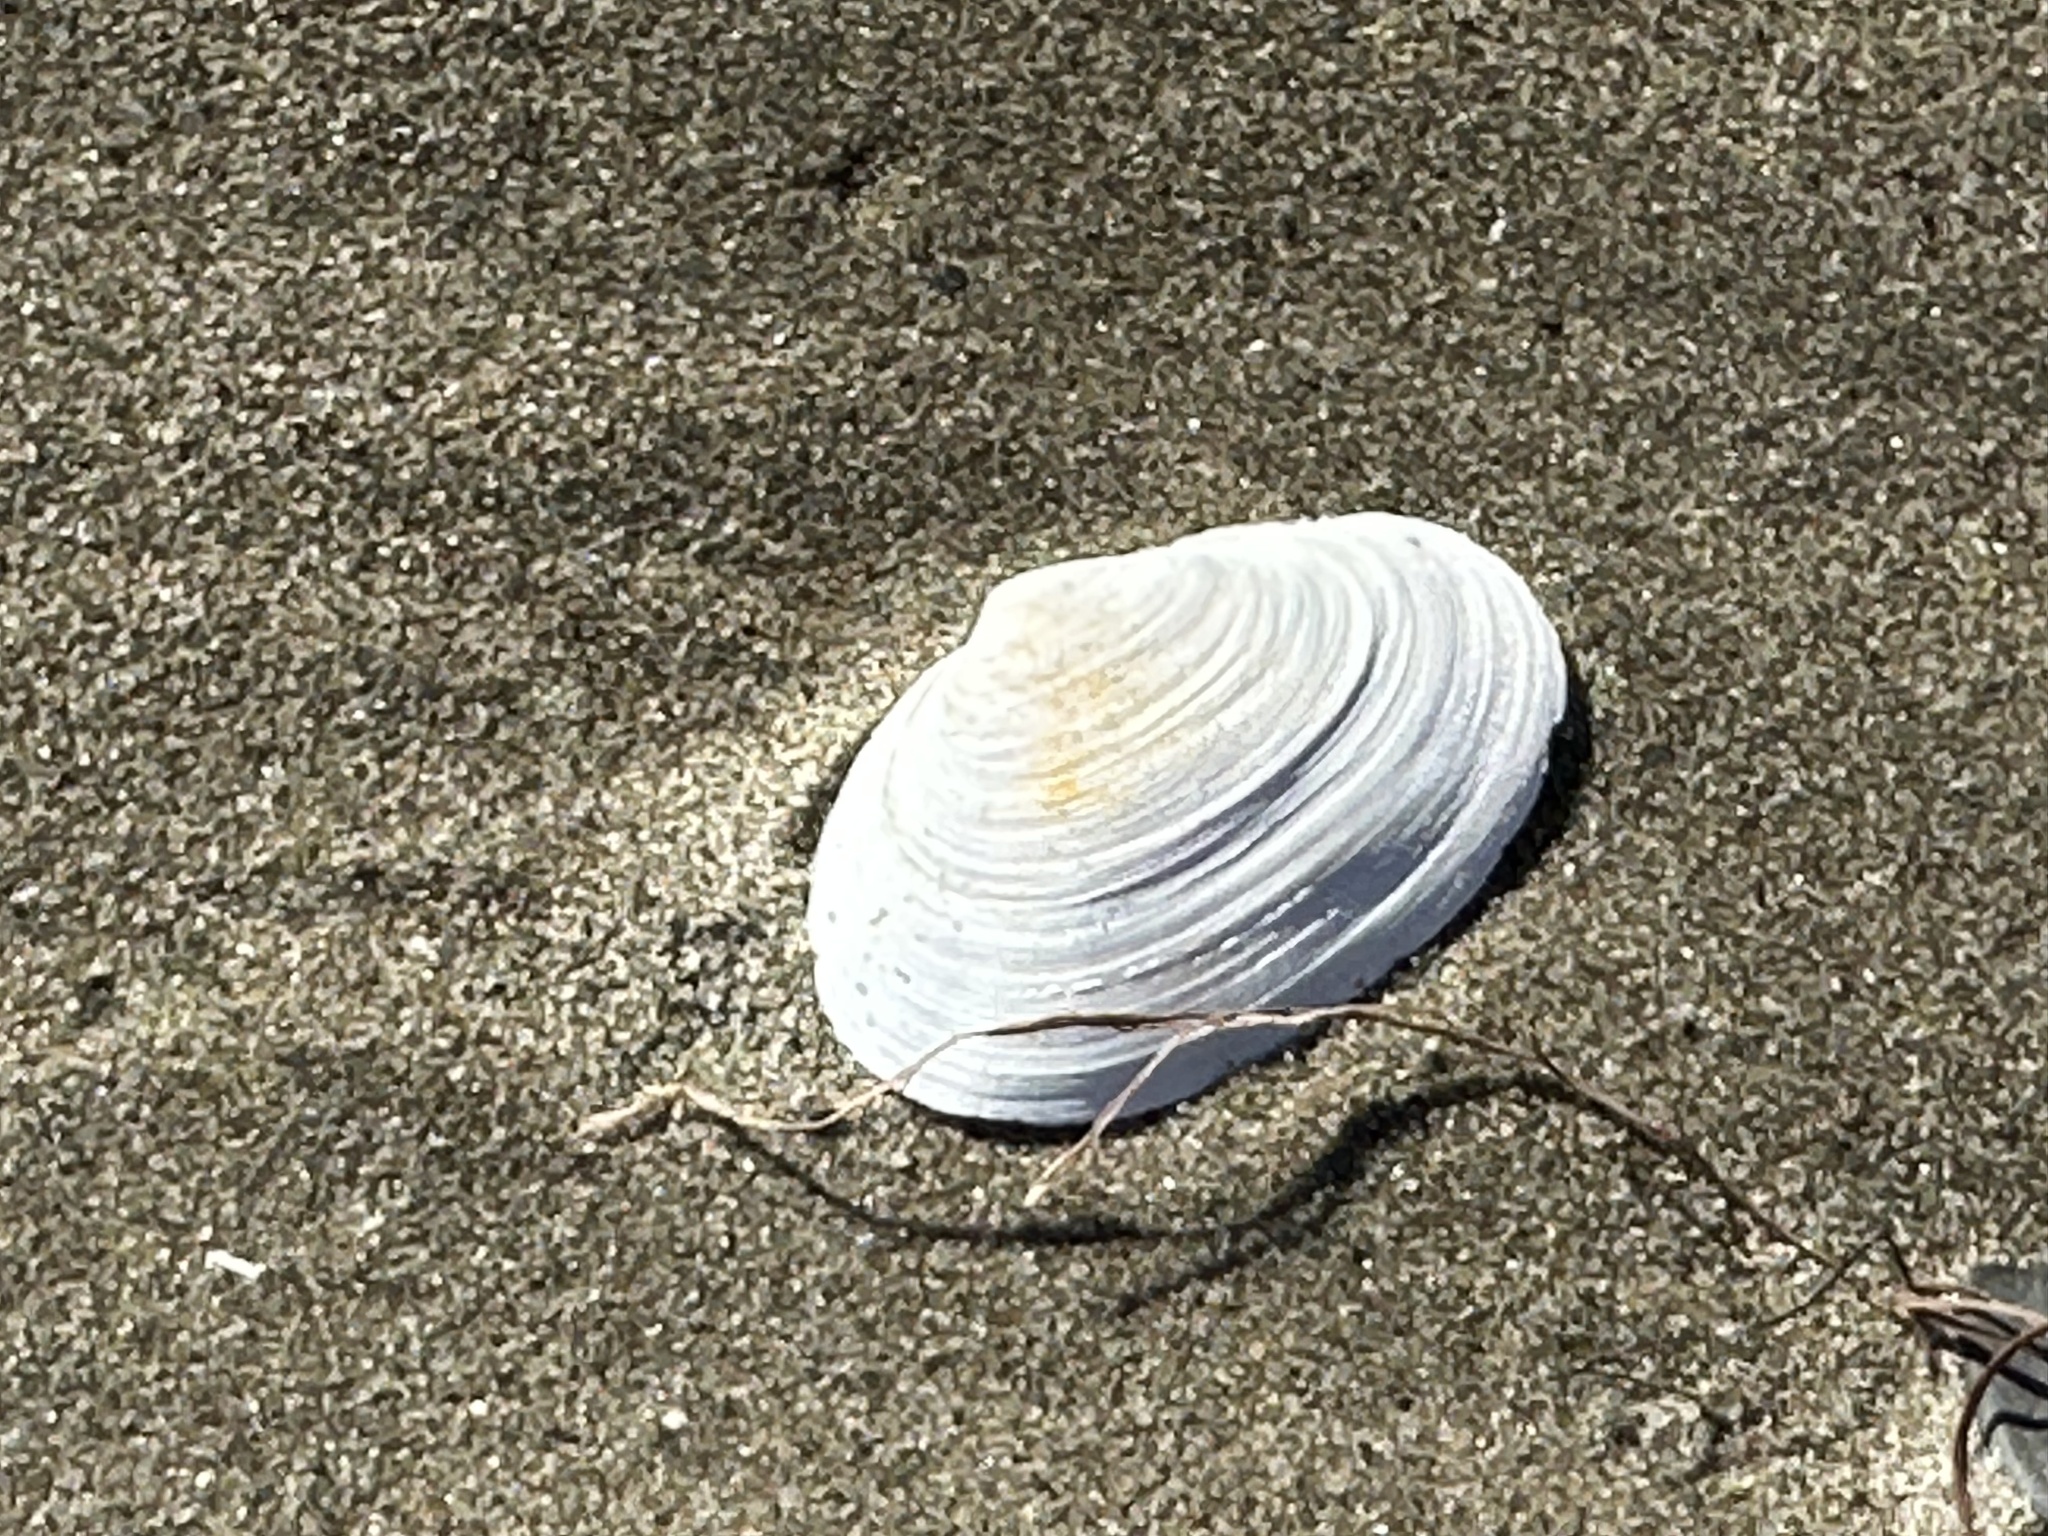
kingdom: Animalia
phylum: Mollusca
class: Bivalvia
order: Myida
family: Myidae
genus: Mya
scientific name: Mya arenaria
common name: Soft-shelled clam
